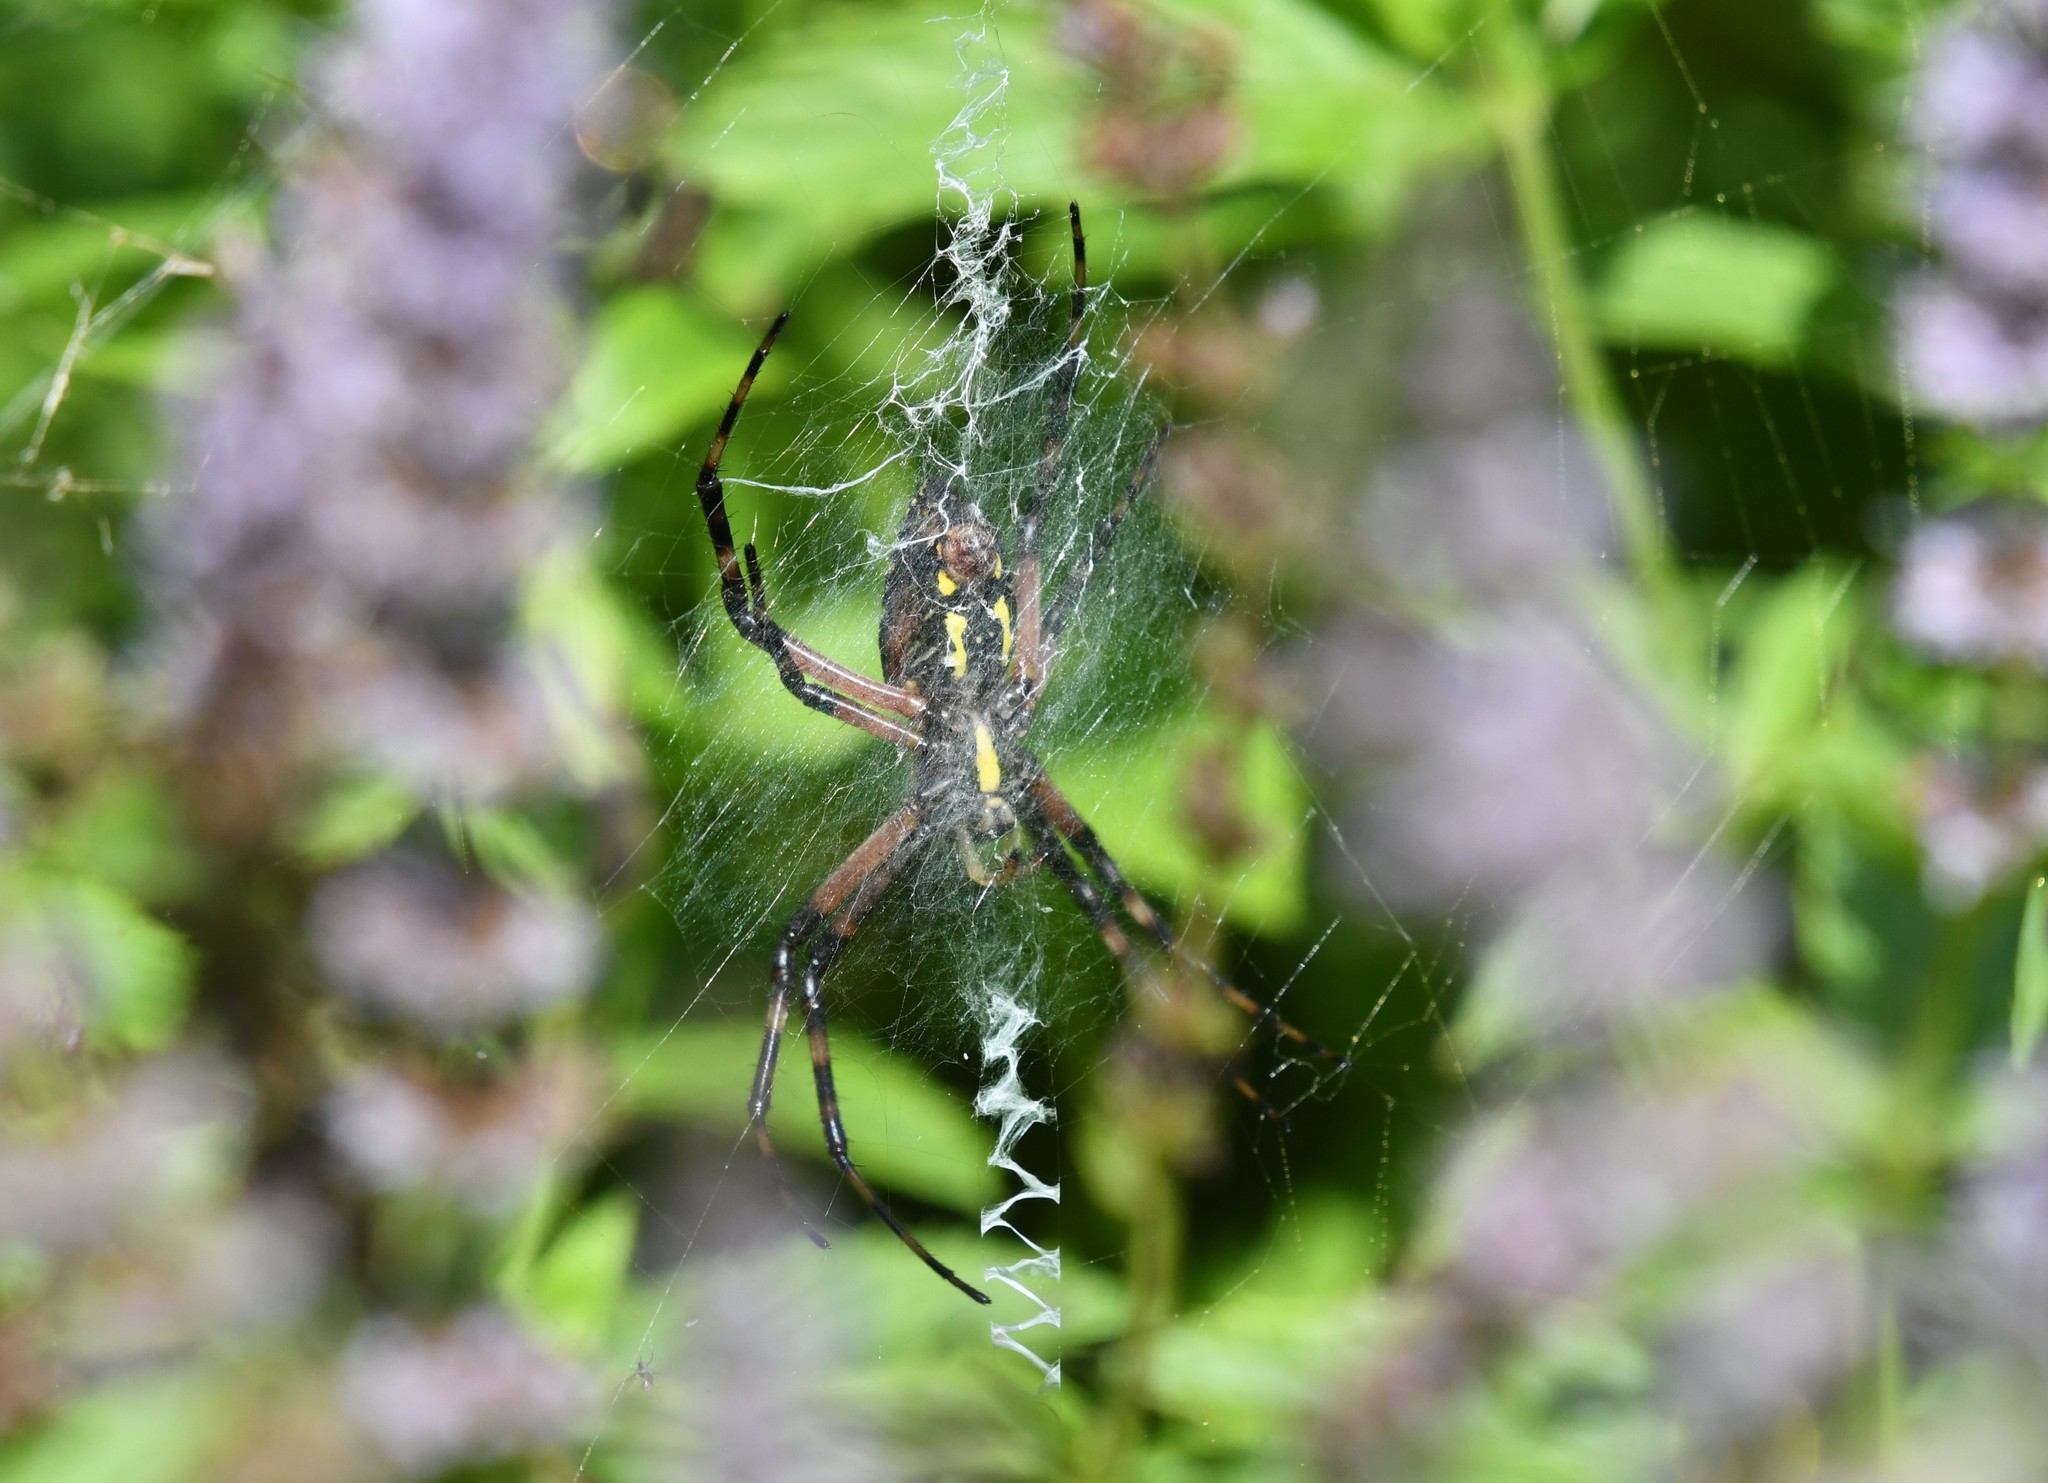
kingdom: Animalia
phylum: Arthropoda
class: Arachnida
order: Araneae
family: Araneidae
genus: Argiope
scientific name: Argiope aurantia
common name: Orb weavers
